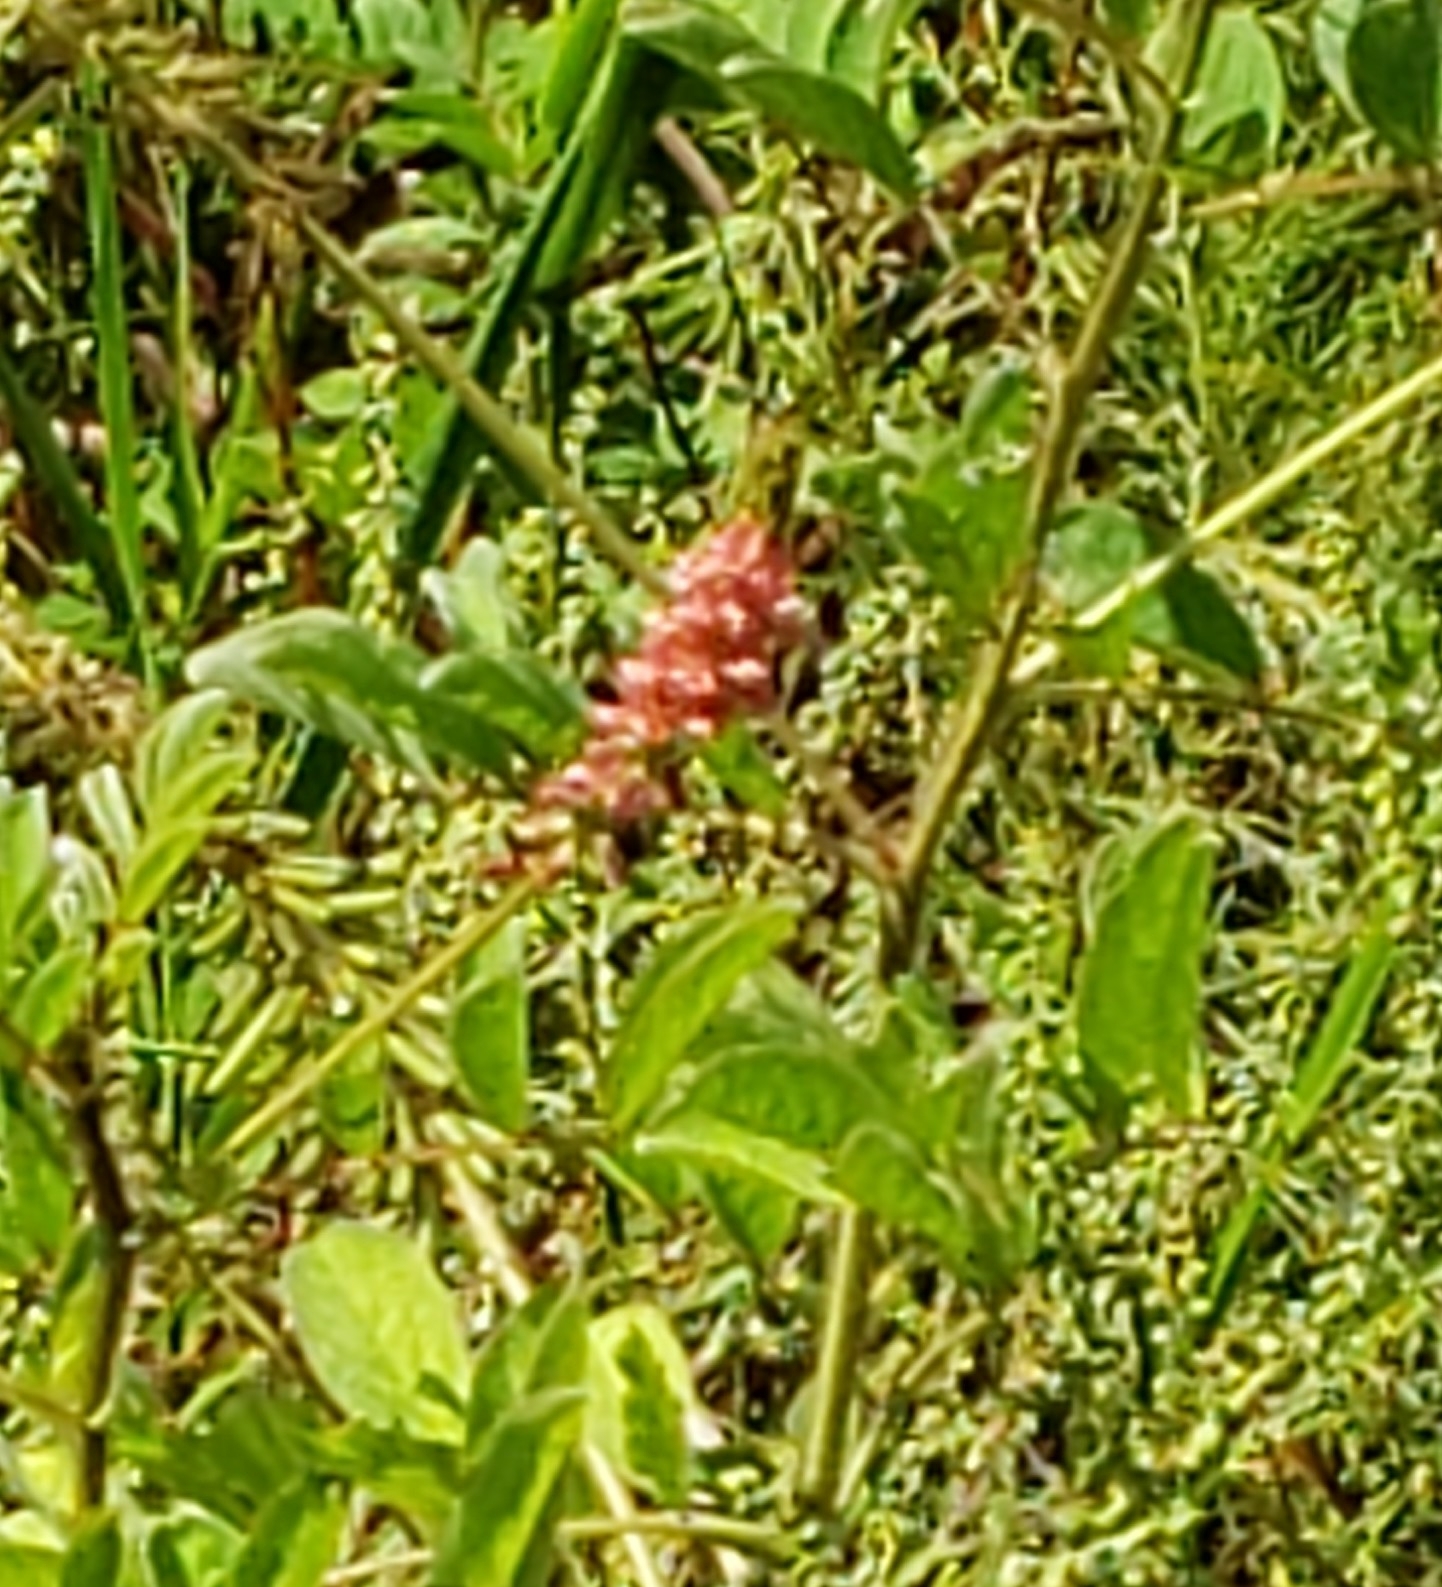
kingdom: Plantae
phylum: Tracheophyta
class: Magnoliopsida
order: Fabales
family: Fabaceae
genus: Indigofera
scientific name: Indigofera hirsuta
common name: Hairy indigo
